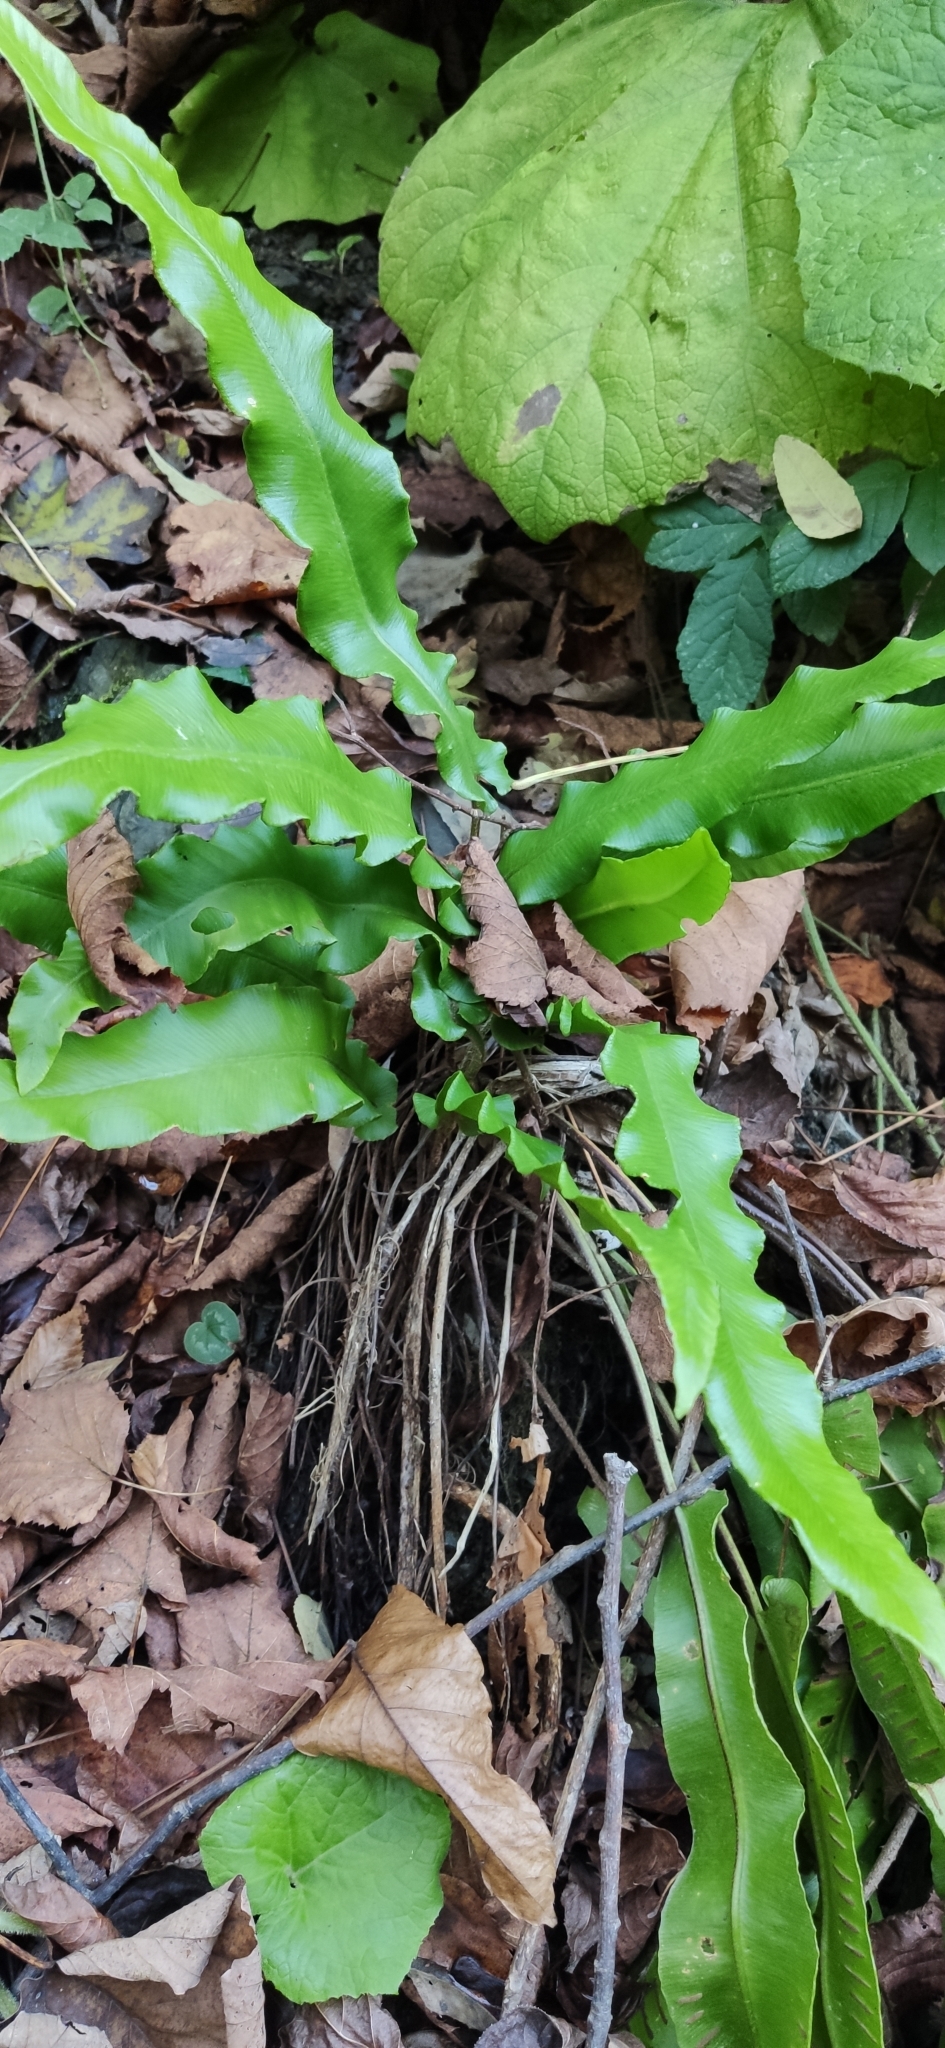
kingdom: Plantae
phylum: Tracheophyta
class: Polypodiopsida
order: Polypodiales
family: Aspleniaceae
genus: Asplenium
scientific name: Asplenium scolopendrium
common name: Hart's-tongue fern
